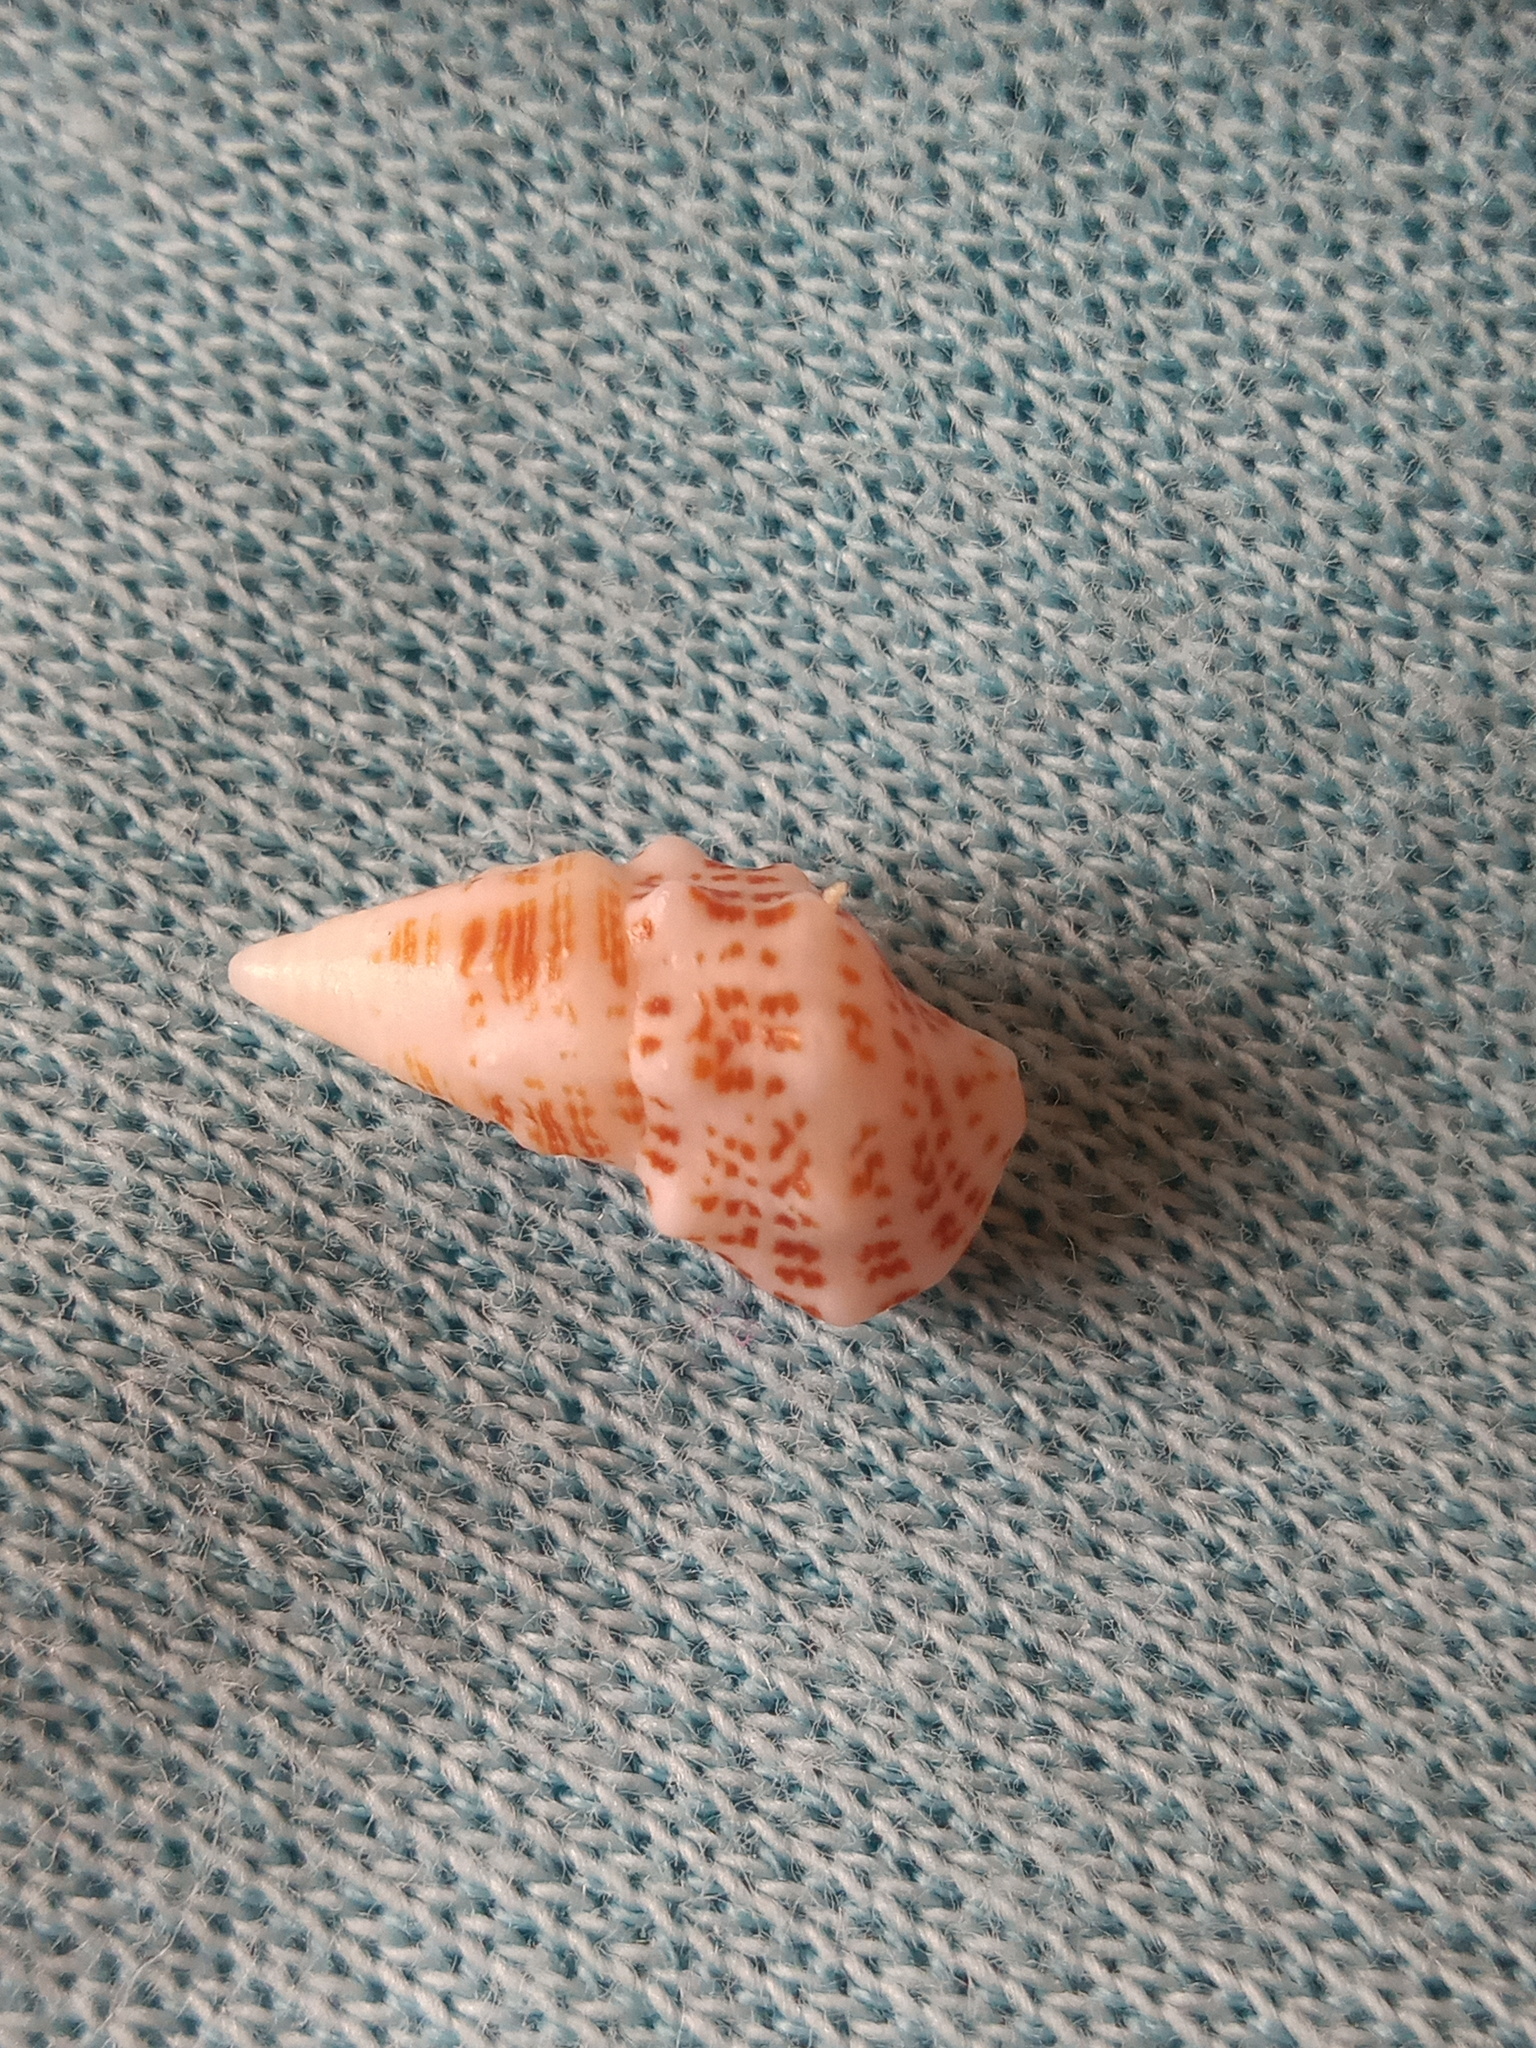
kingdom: Animalia
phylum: Mollusca
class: Gastropoda
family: Cerithiidae
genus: Cerithium
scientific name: Cerithium litteratum
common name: Stocky cerith
